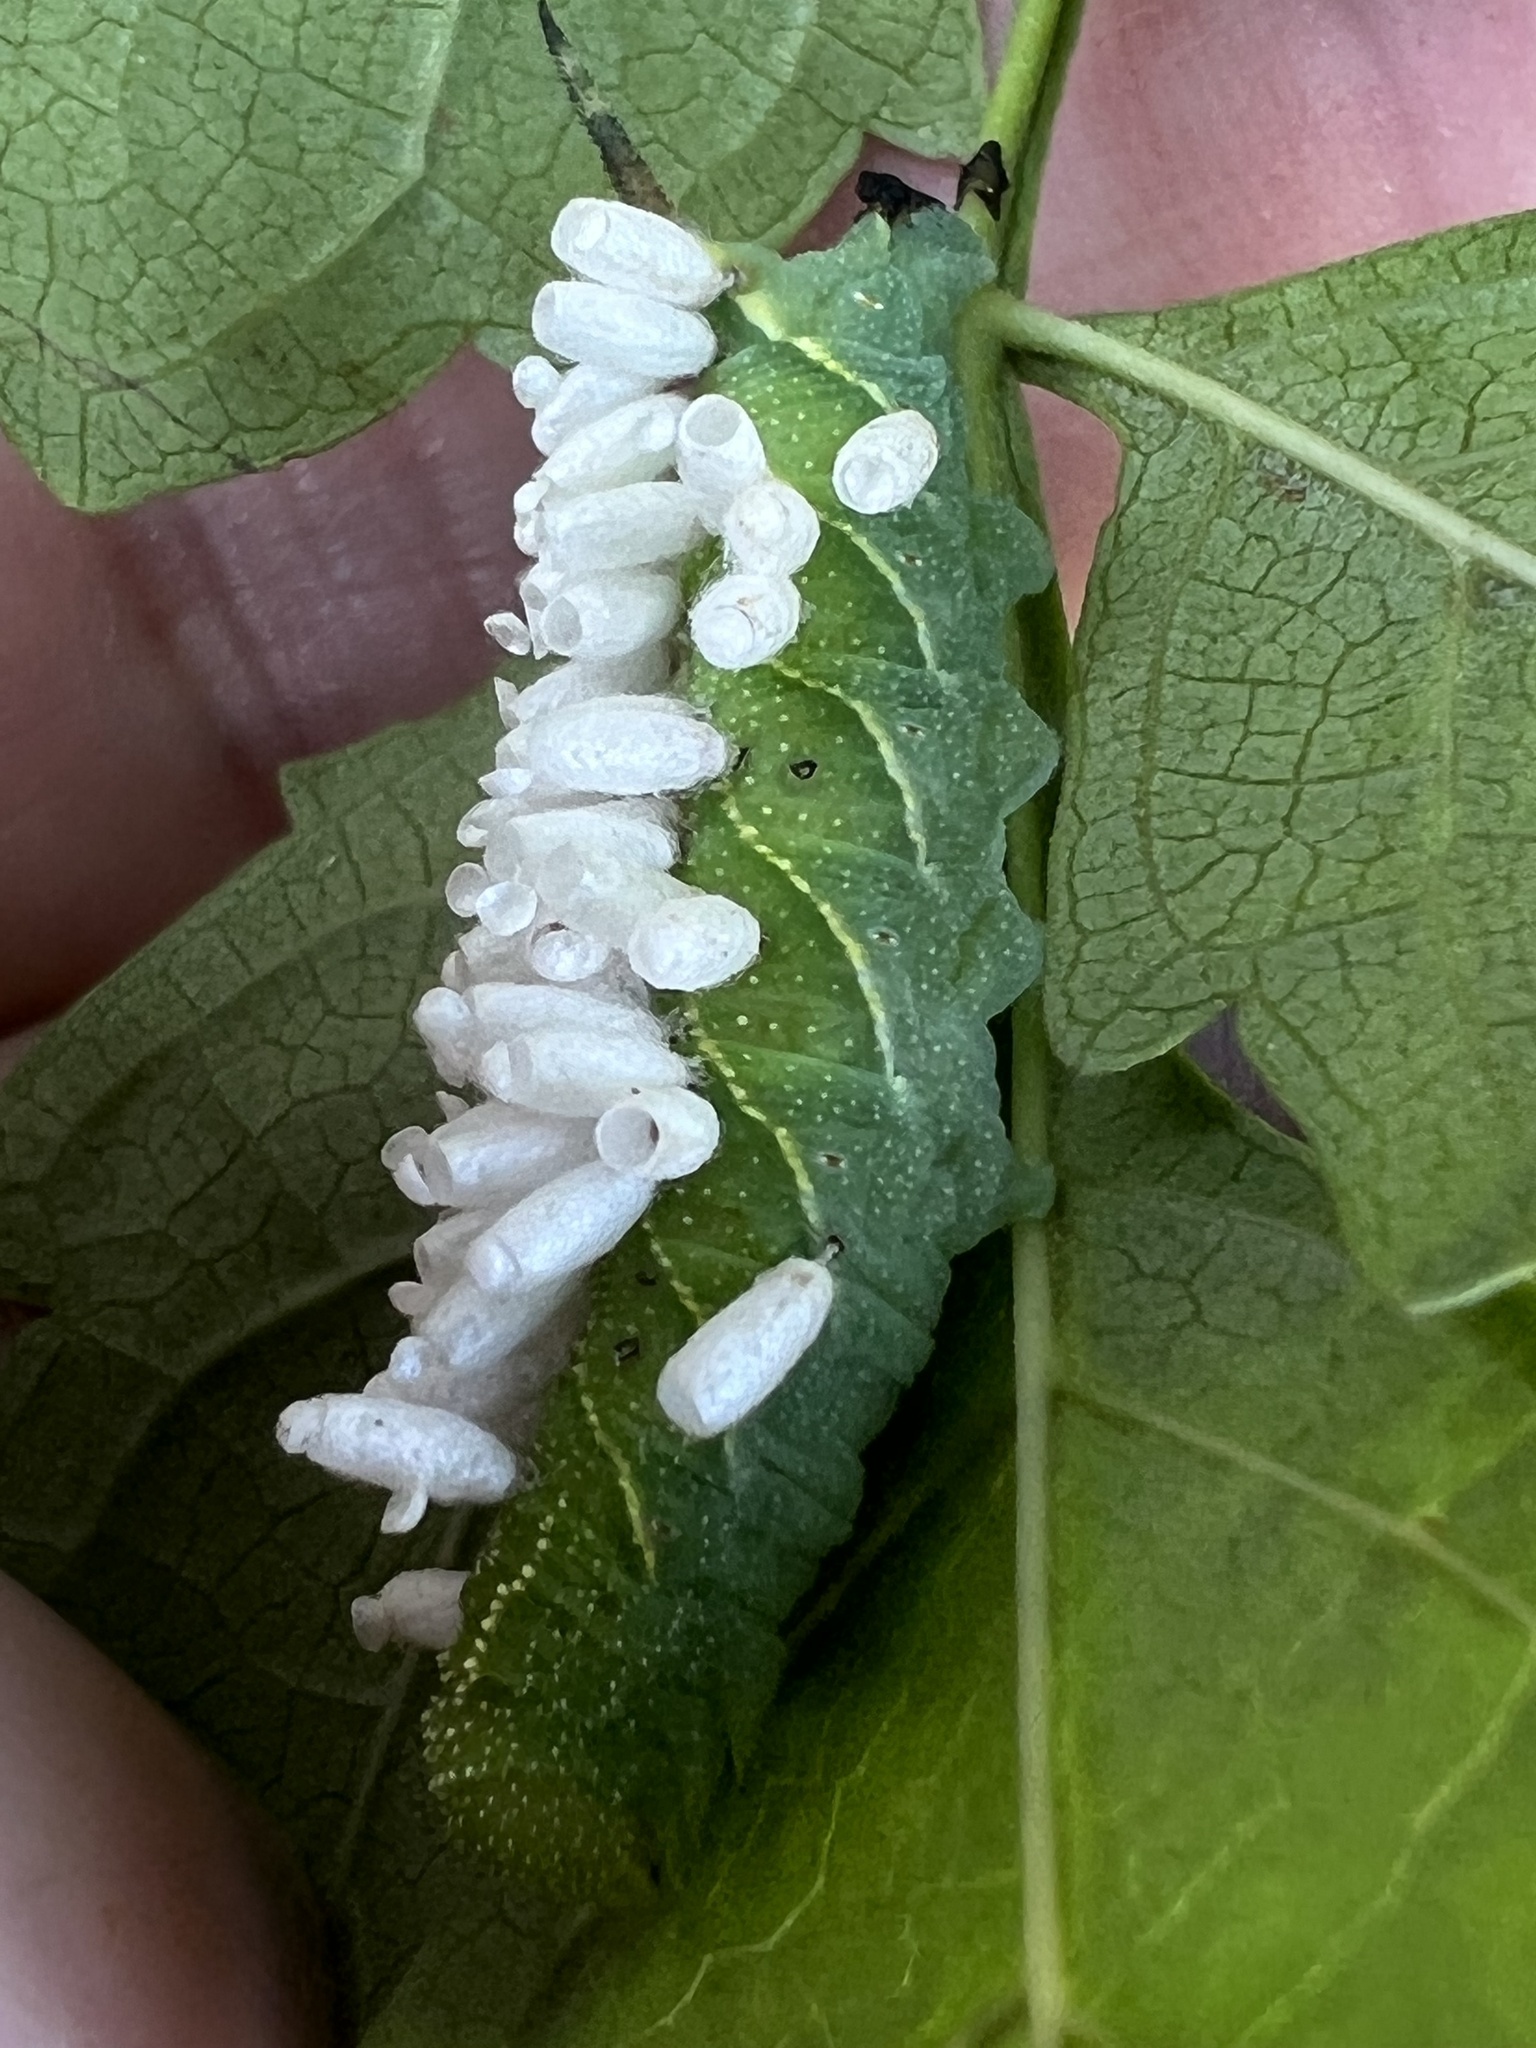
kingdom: Animalia
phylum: Arthropoda
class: Insecta
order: Lepidoptera
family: Sphingidae
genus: Paratrea
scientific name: Paratrea plebeja
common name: Plebian sphinx
